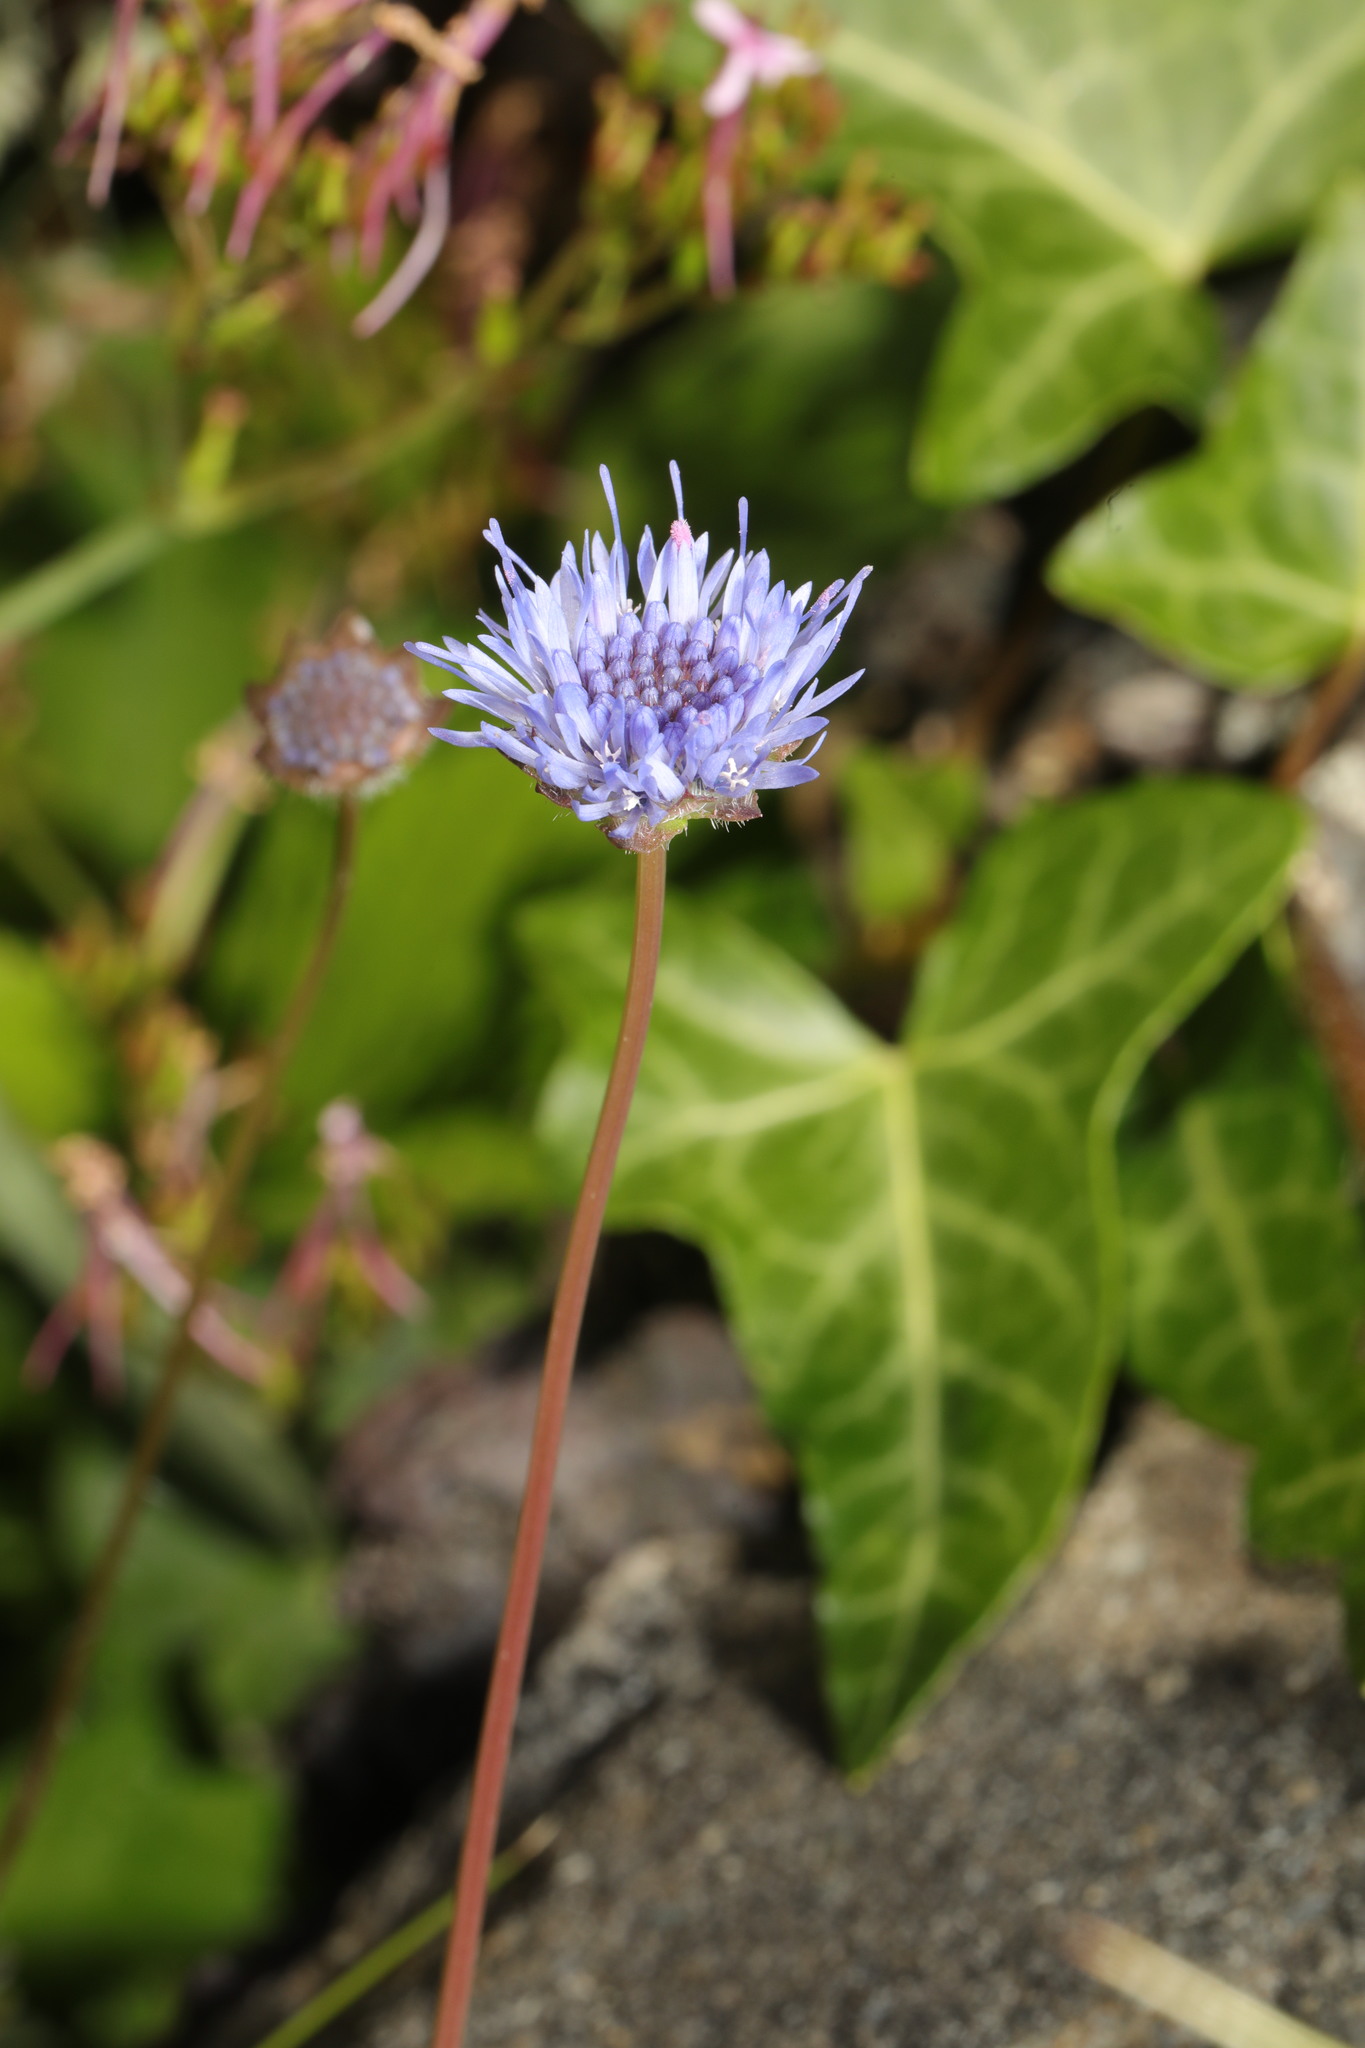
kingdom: Plantae
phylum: Tracheophyta
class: Magnoliopsida
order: Asterales
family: Campanulaceae
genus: Jasione
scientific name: Jasione montana
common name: Sheep's-bit
